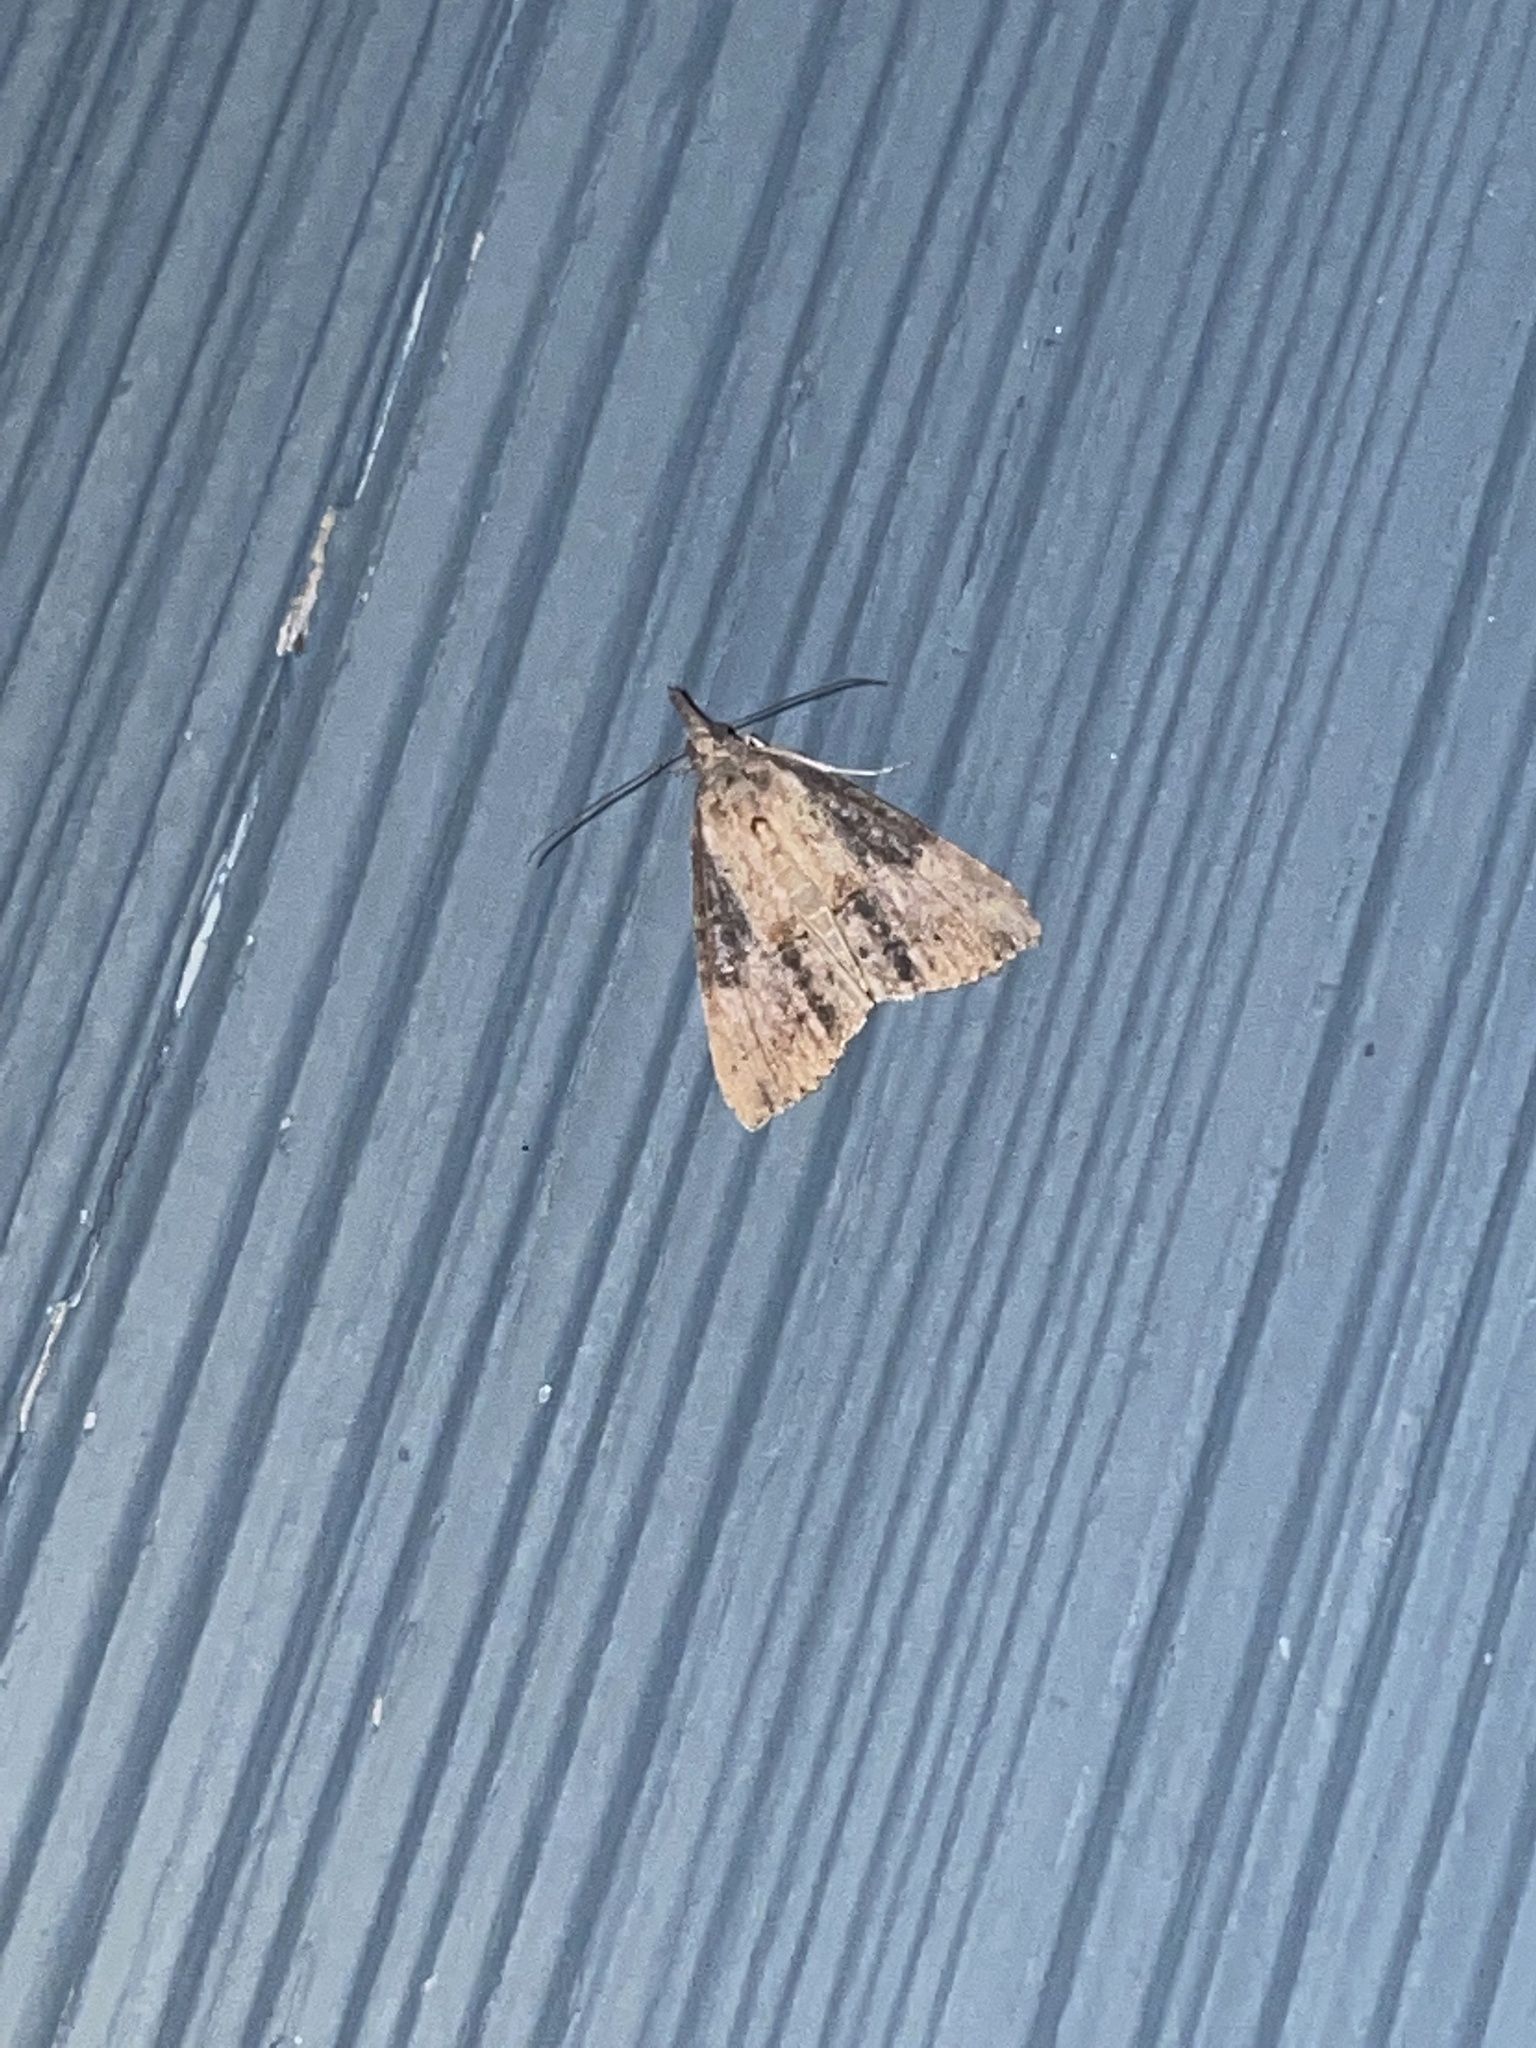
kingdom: Animalia
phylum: Arthropoda
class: Insecta
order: Lepidoptera
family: Erebidae
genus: Hypena
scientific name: Hypena scabra
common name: Green cloverworm
